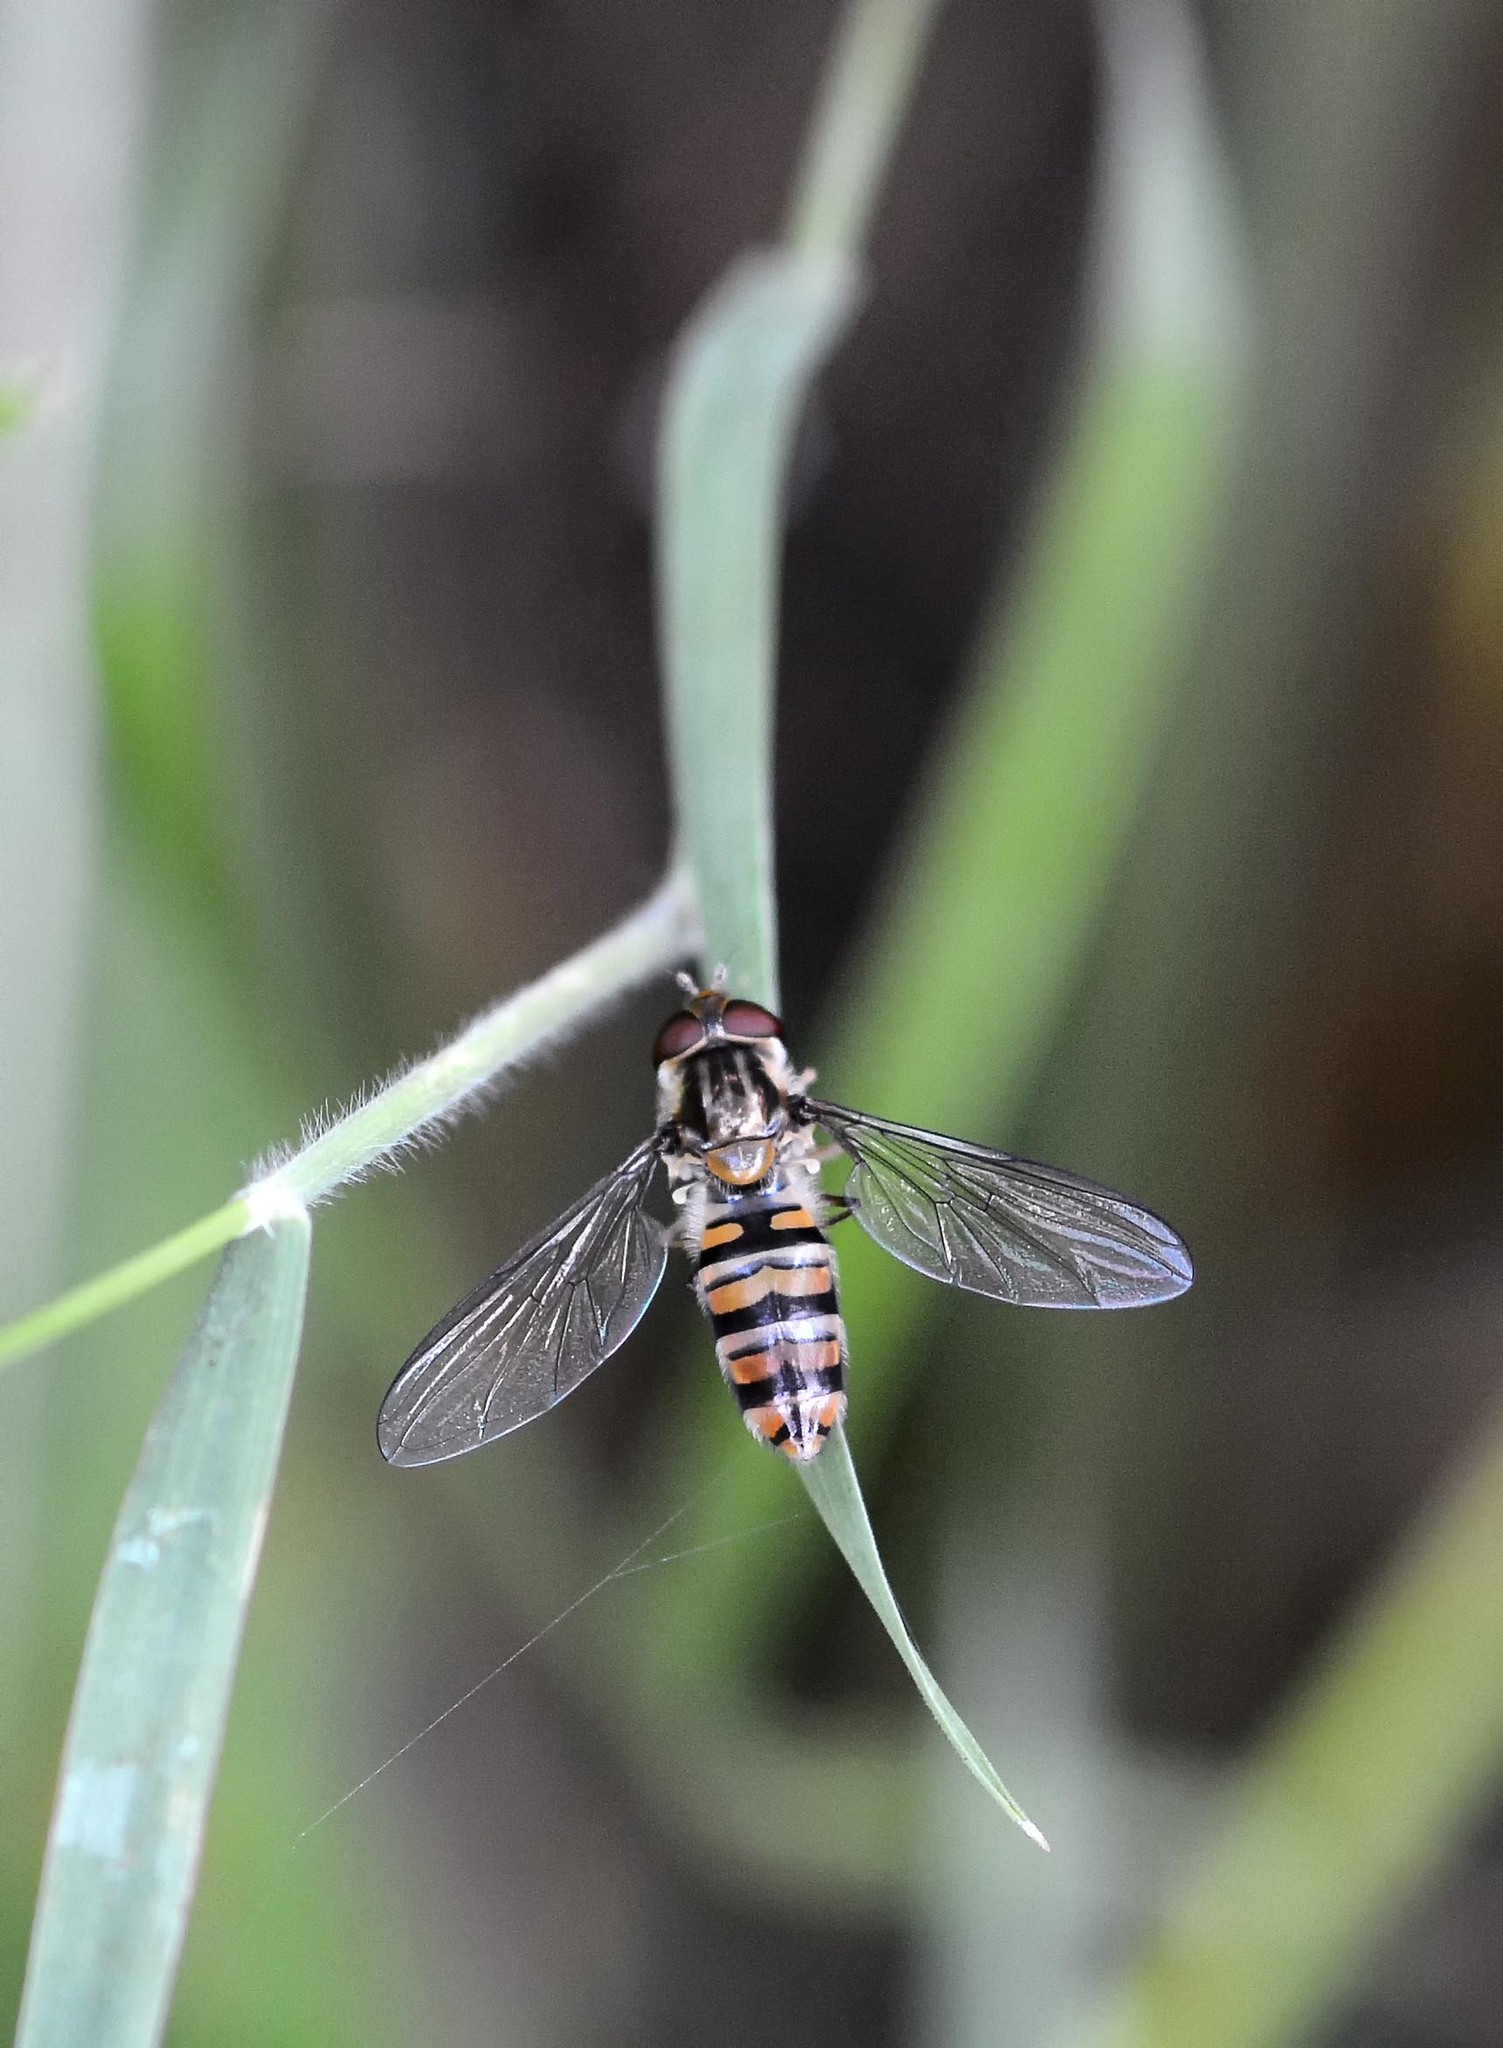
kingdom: Animalia
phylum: Arthropoda
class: Insecta
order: Diptera
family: Syrphidae
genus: Episyrphus
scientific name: Episyrphus balteatus
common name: Marmalade hoverfly
